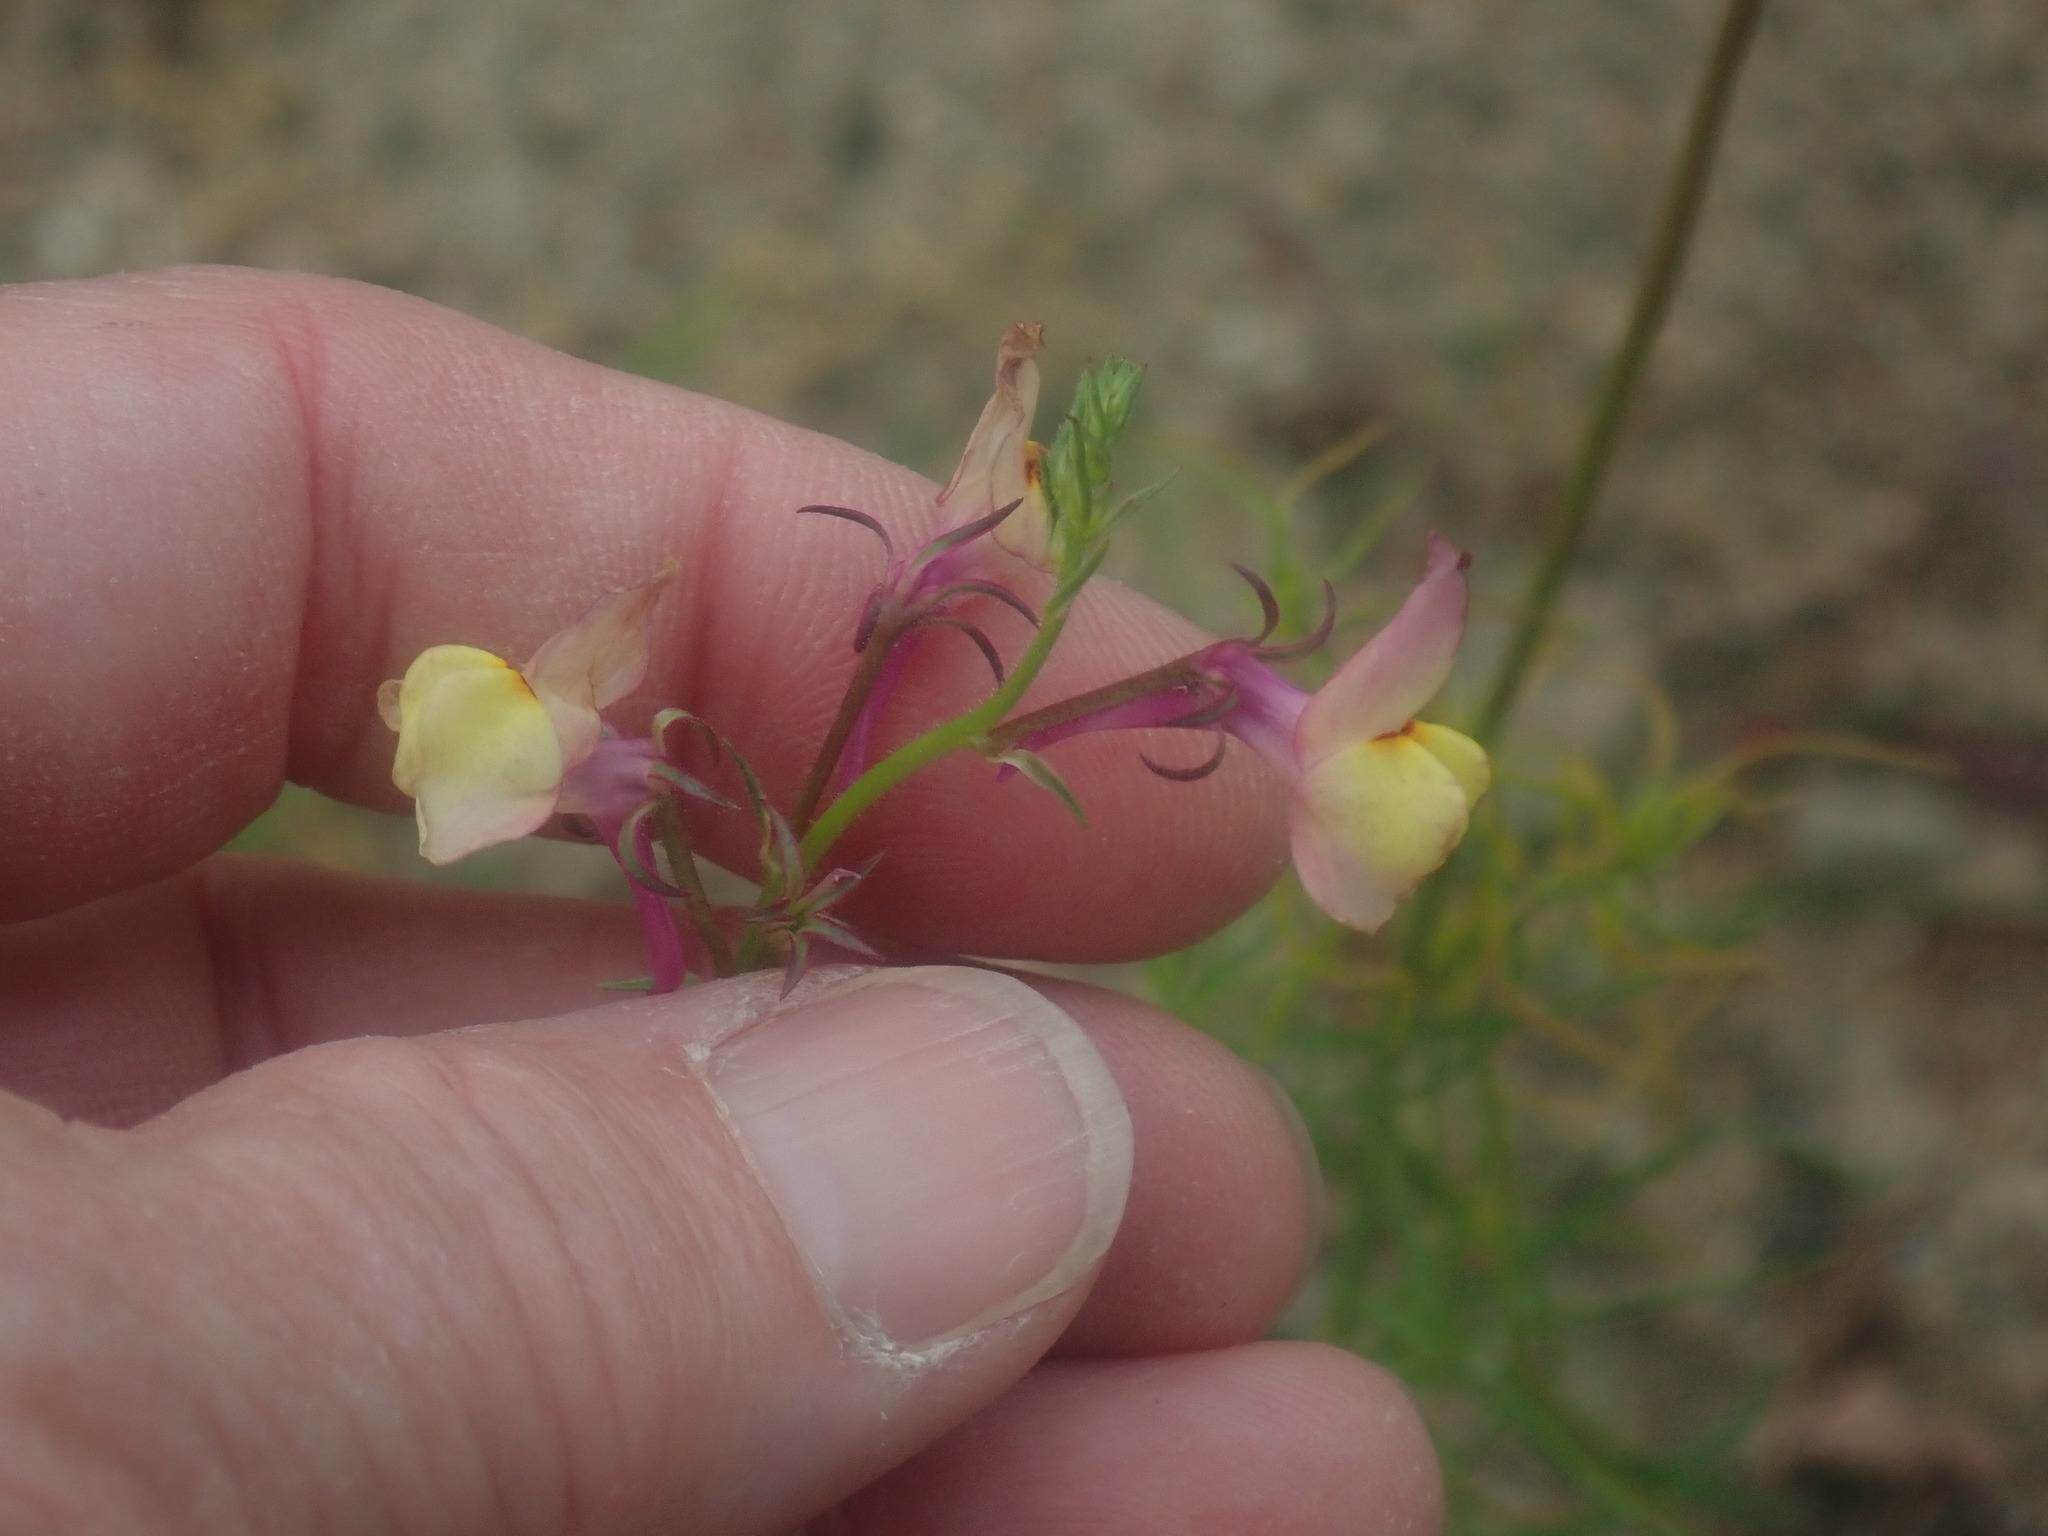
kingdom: Plantae
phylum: Tracheophyta
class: Magnoliopsida
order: Lamiales
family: Plantaginaceae
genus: Linaria
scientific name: Linaria maroccana
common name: Moroccan toadflax
